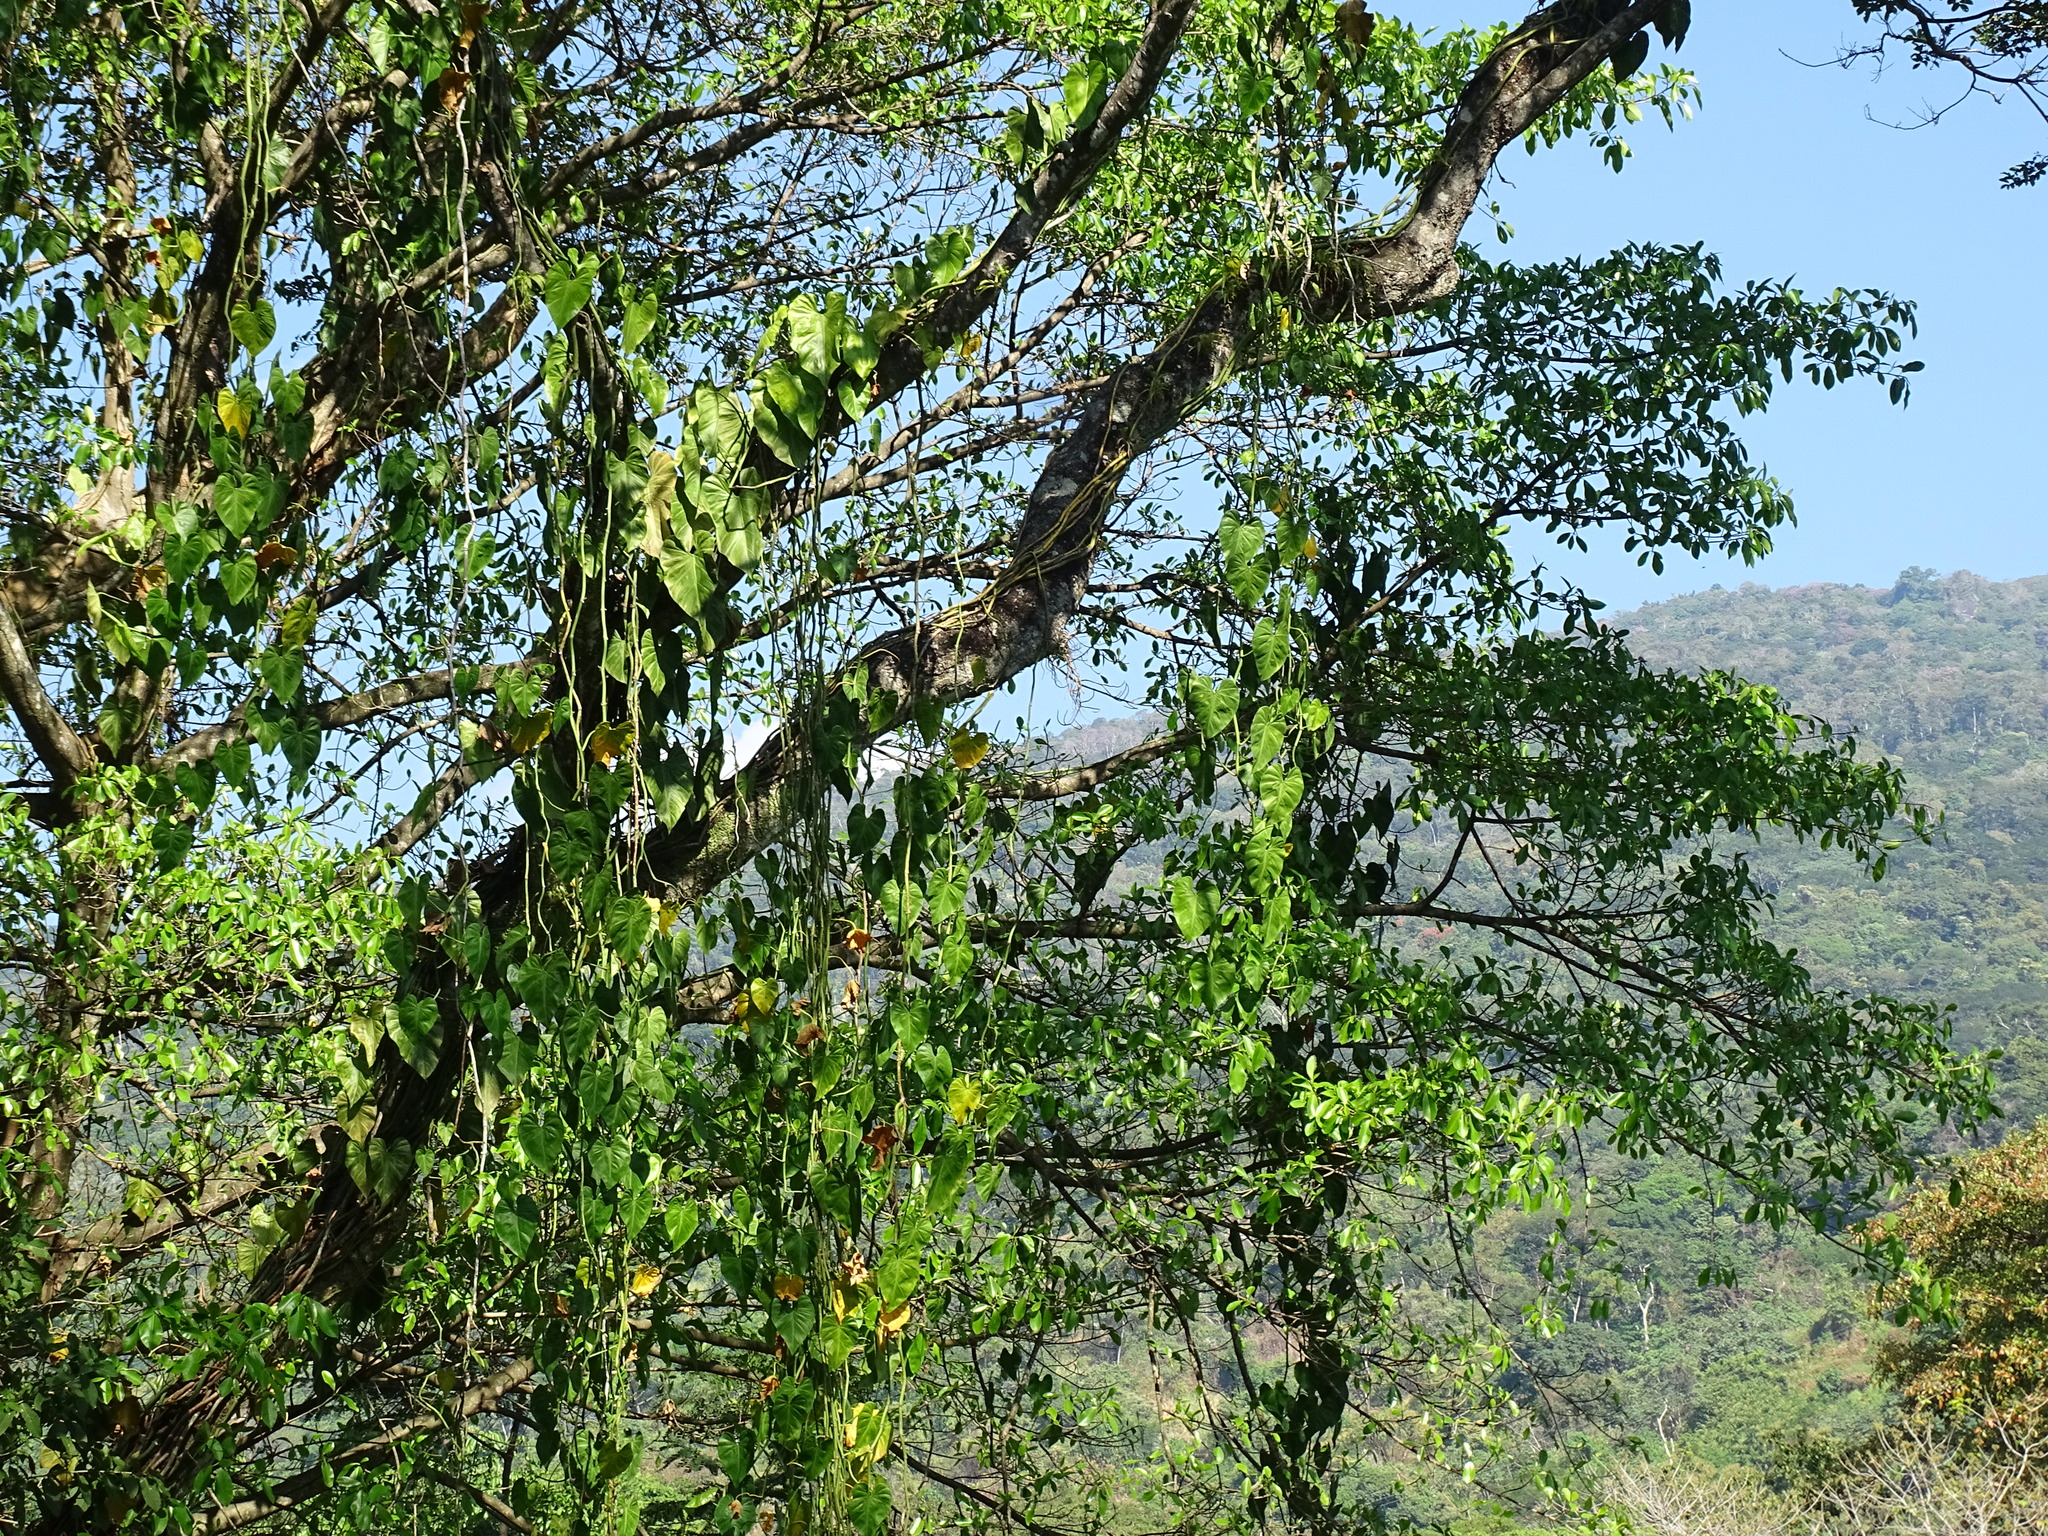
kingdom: Plantae
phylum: Tracheophyta
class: Liliopsida
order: Alismatales
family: Araceae
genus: Philodendron
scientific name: Philodendron hederaceum
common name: Vilevine
